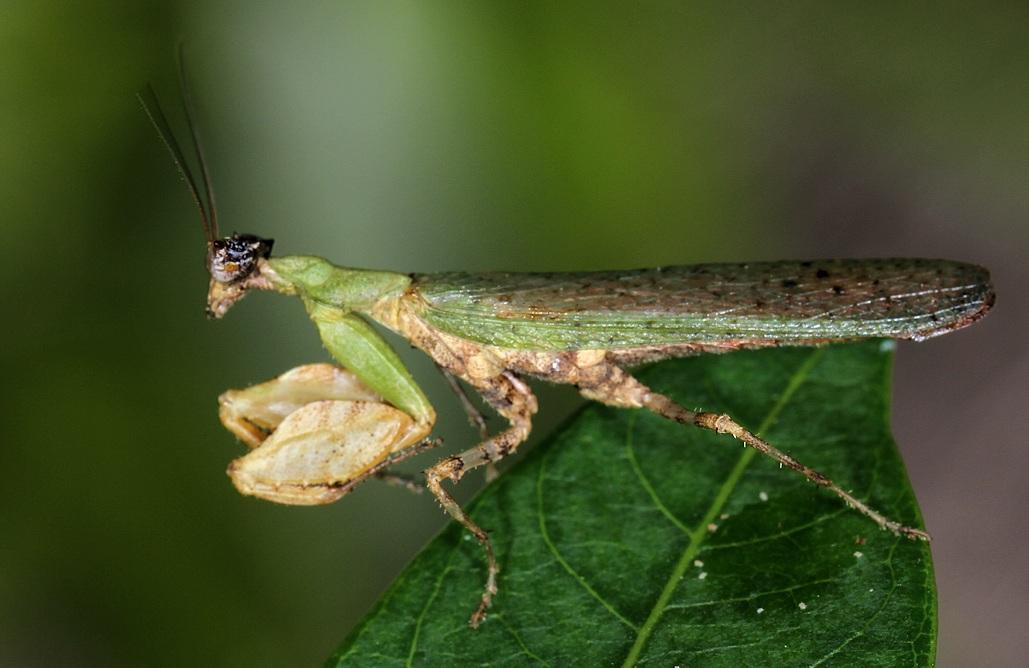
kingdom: Animalia
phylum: Arthropoda
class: Insecta
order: Mantodea
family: Hymenopodidae
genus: Otomantis
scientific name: Otomantis scutigera
